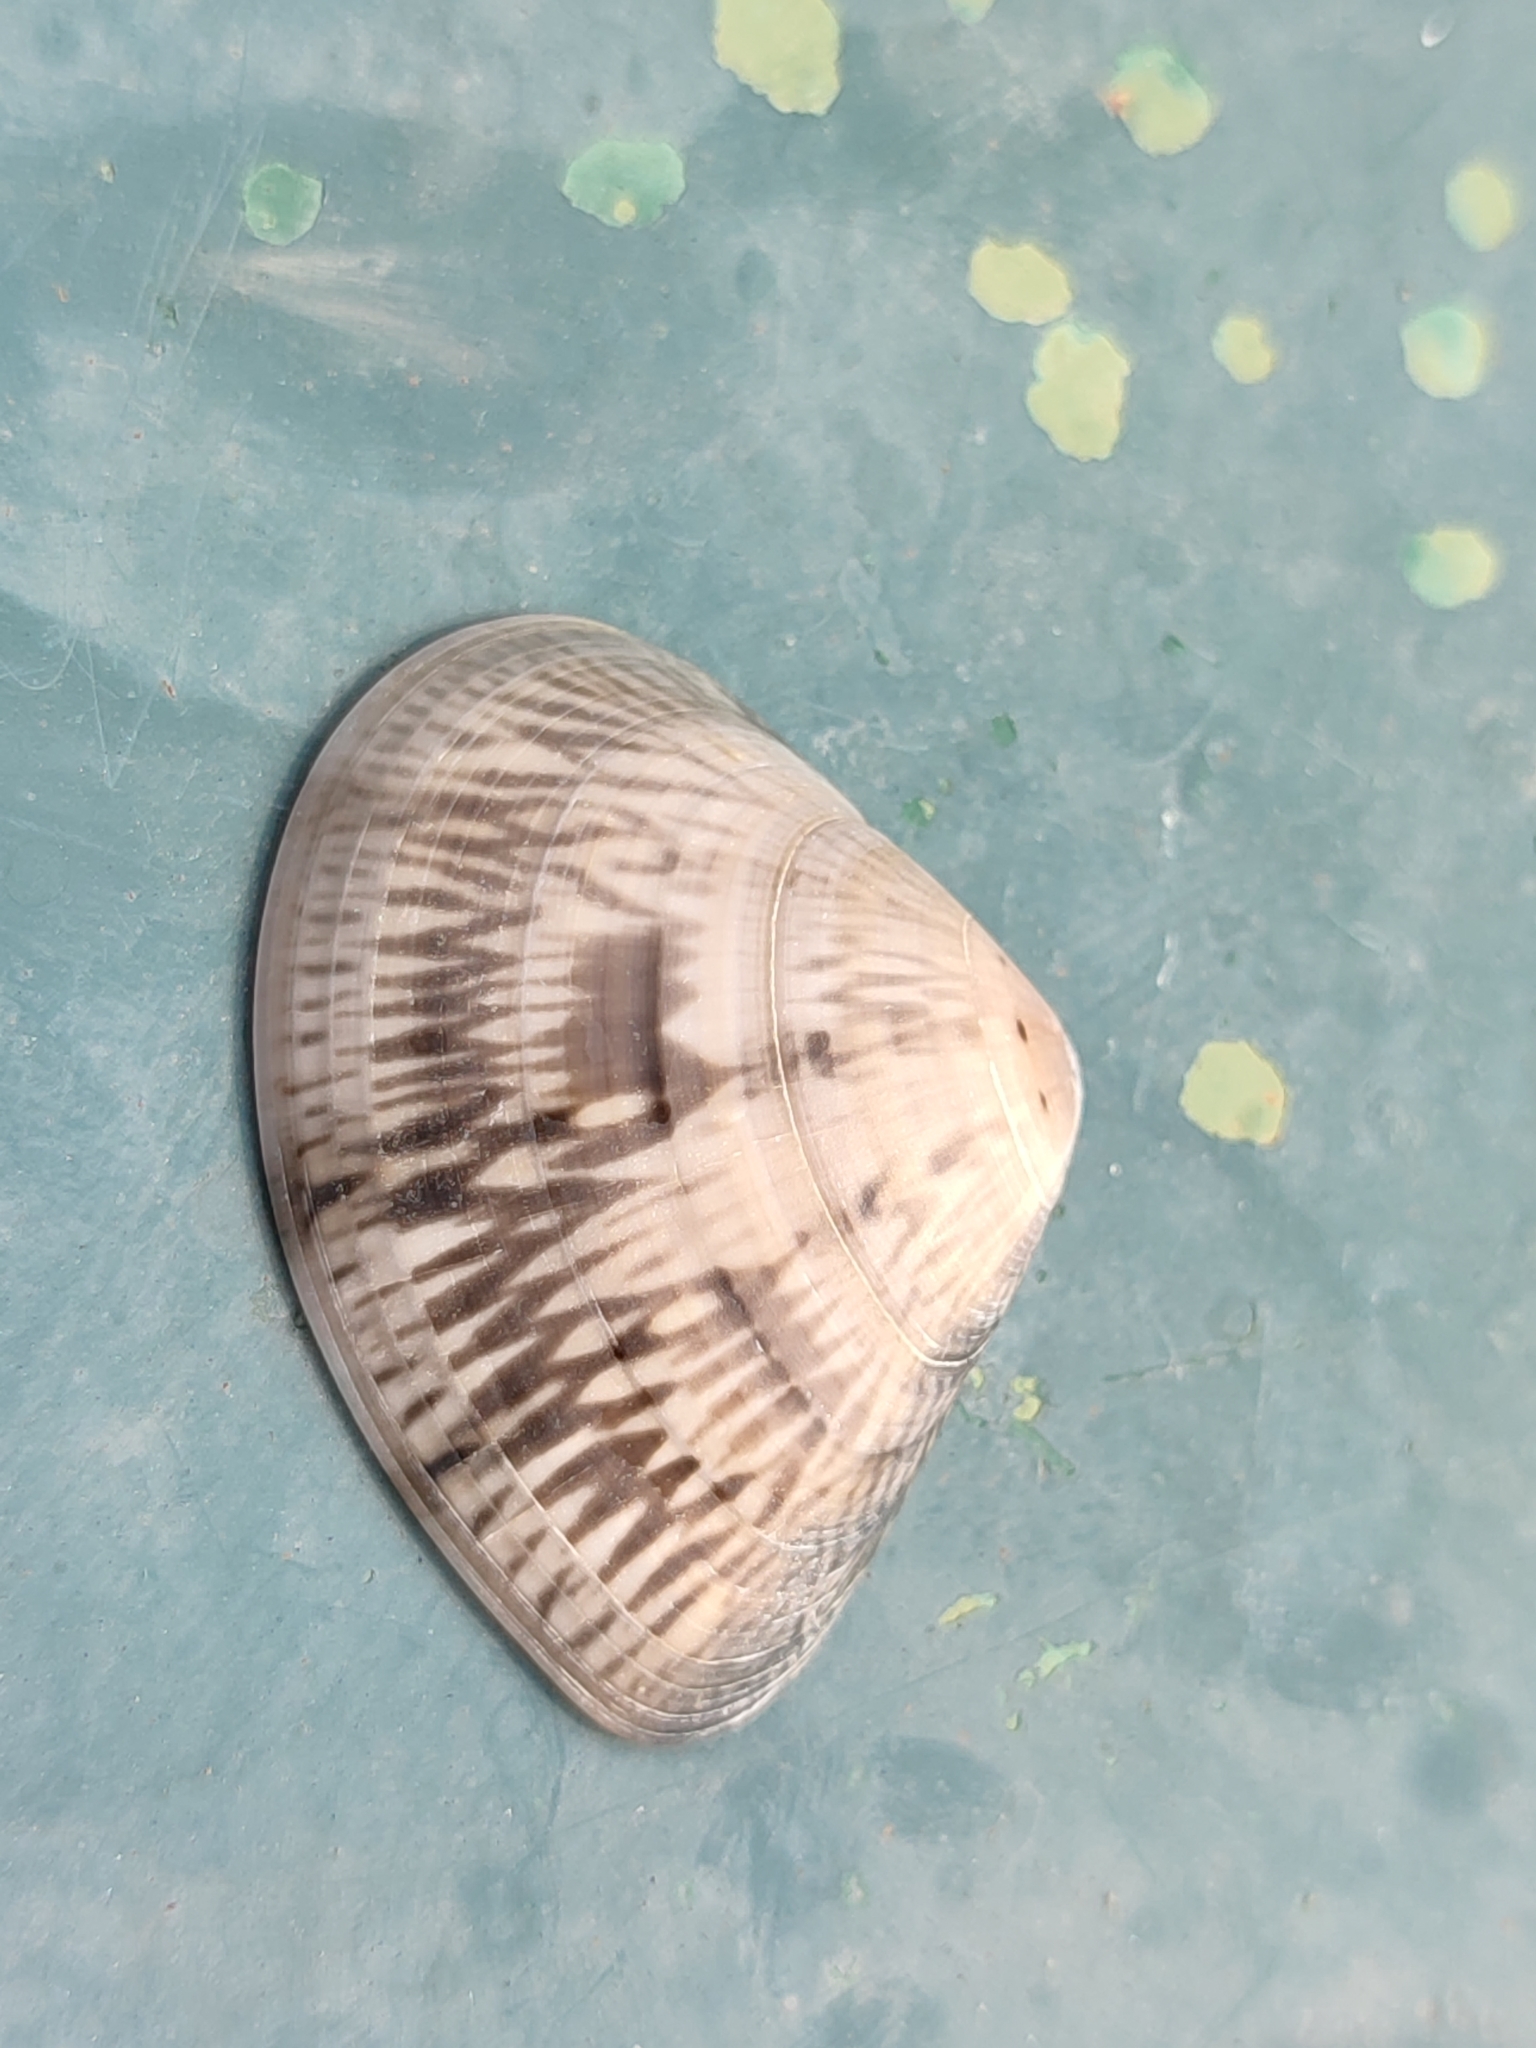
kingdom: Animalia
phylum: Mollusca
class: Bivalvia
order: Venerida
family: Veneridae
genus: Macridiscus
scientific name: Macridiscus aequilatera
